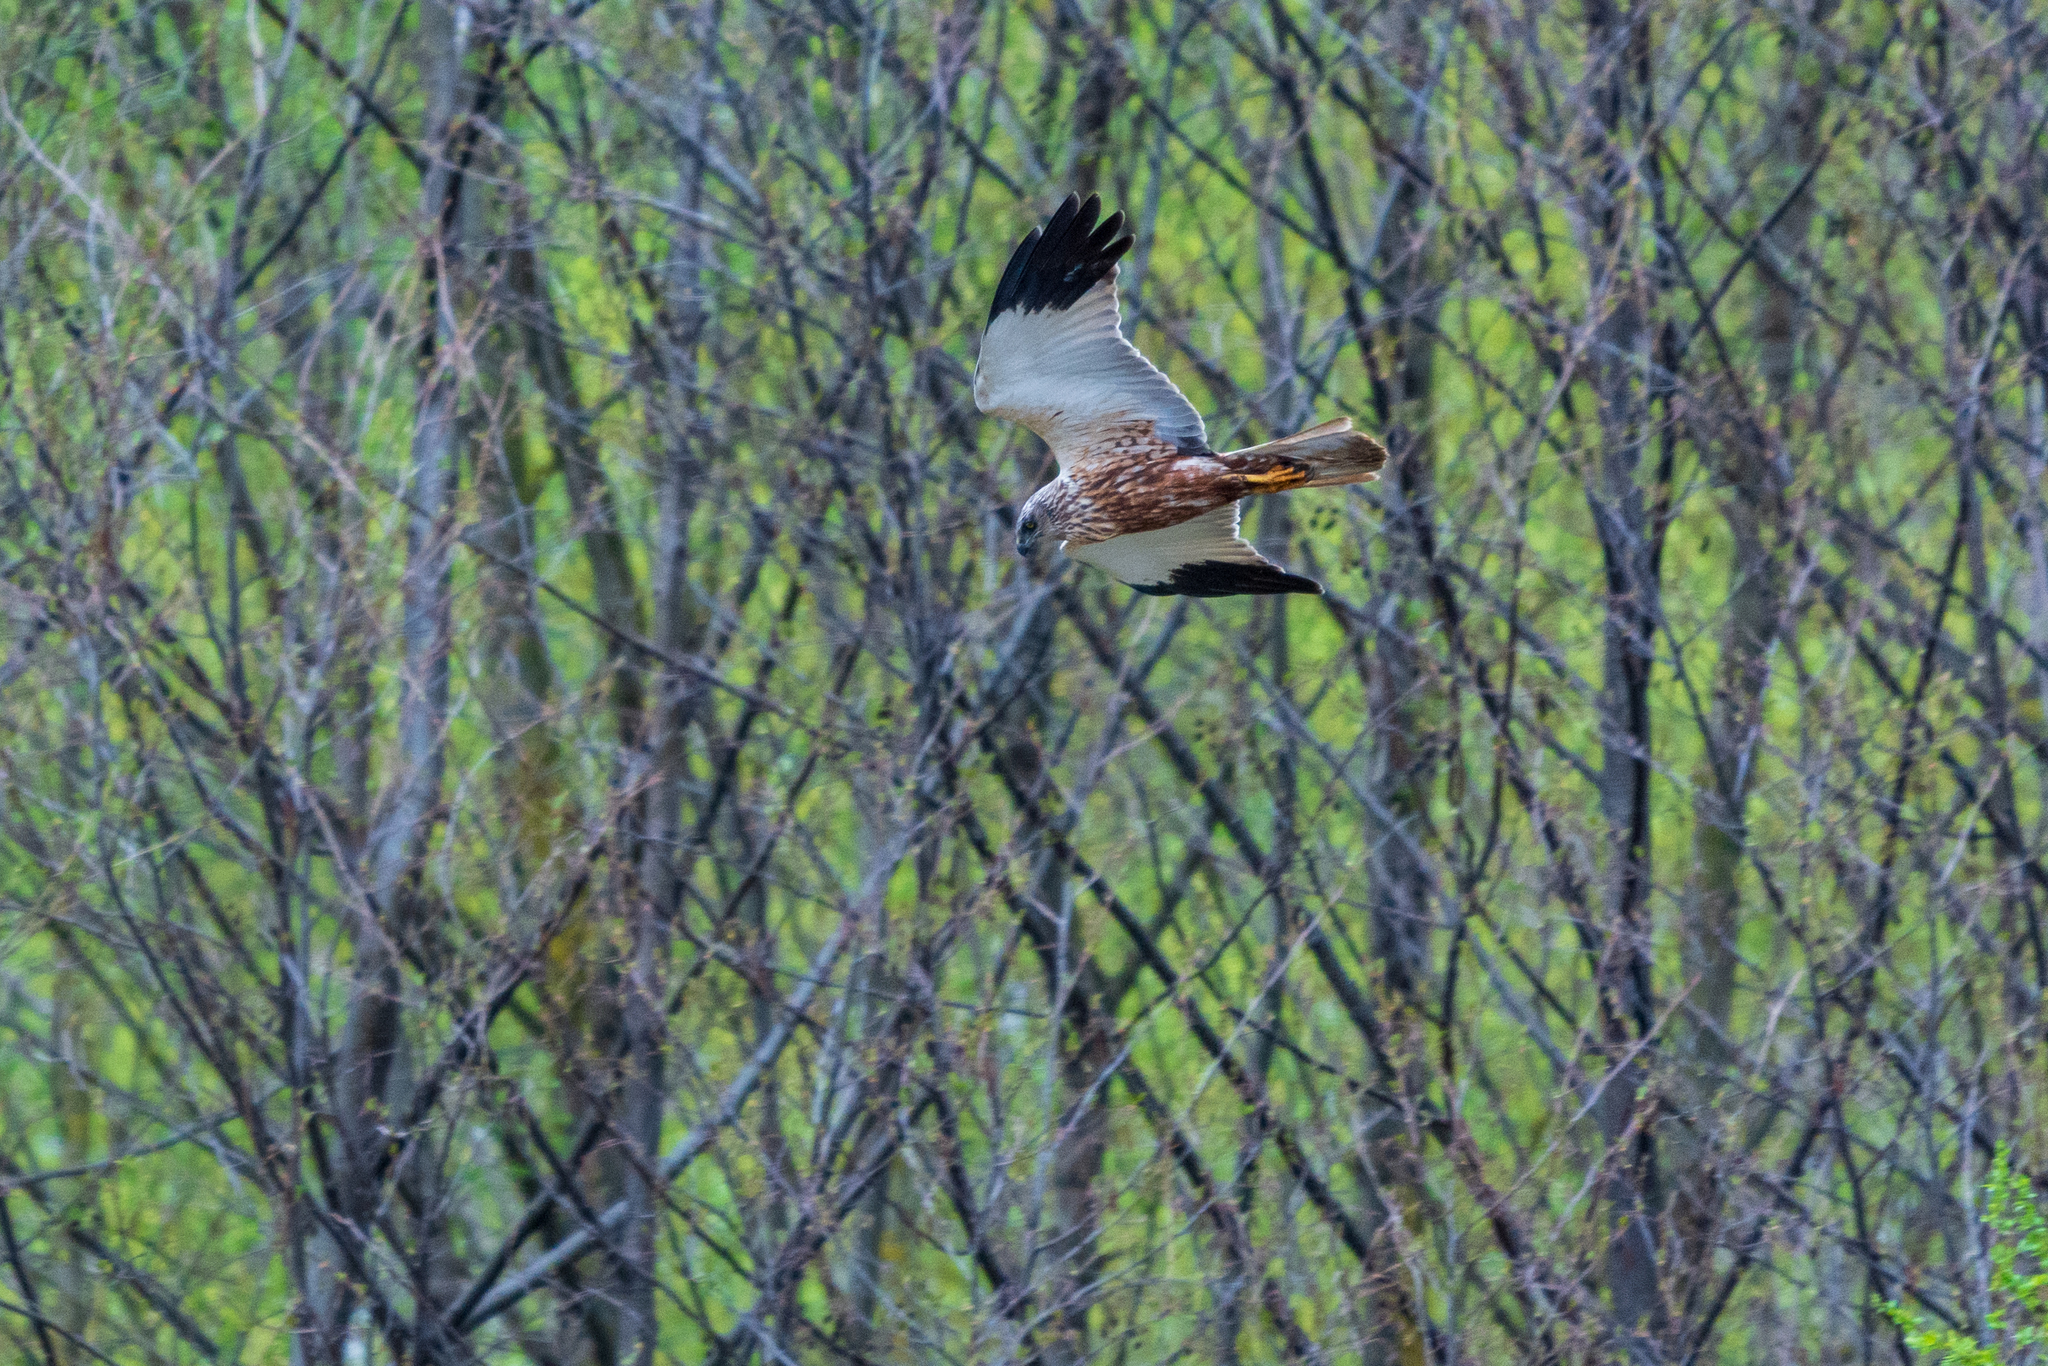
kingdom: Animalia
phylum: Chordata
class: Aves
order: Accipitriformes
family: Accipitridae
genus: Circus
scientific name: Circus aeruginosus
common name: Western marsh harrier
